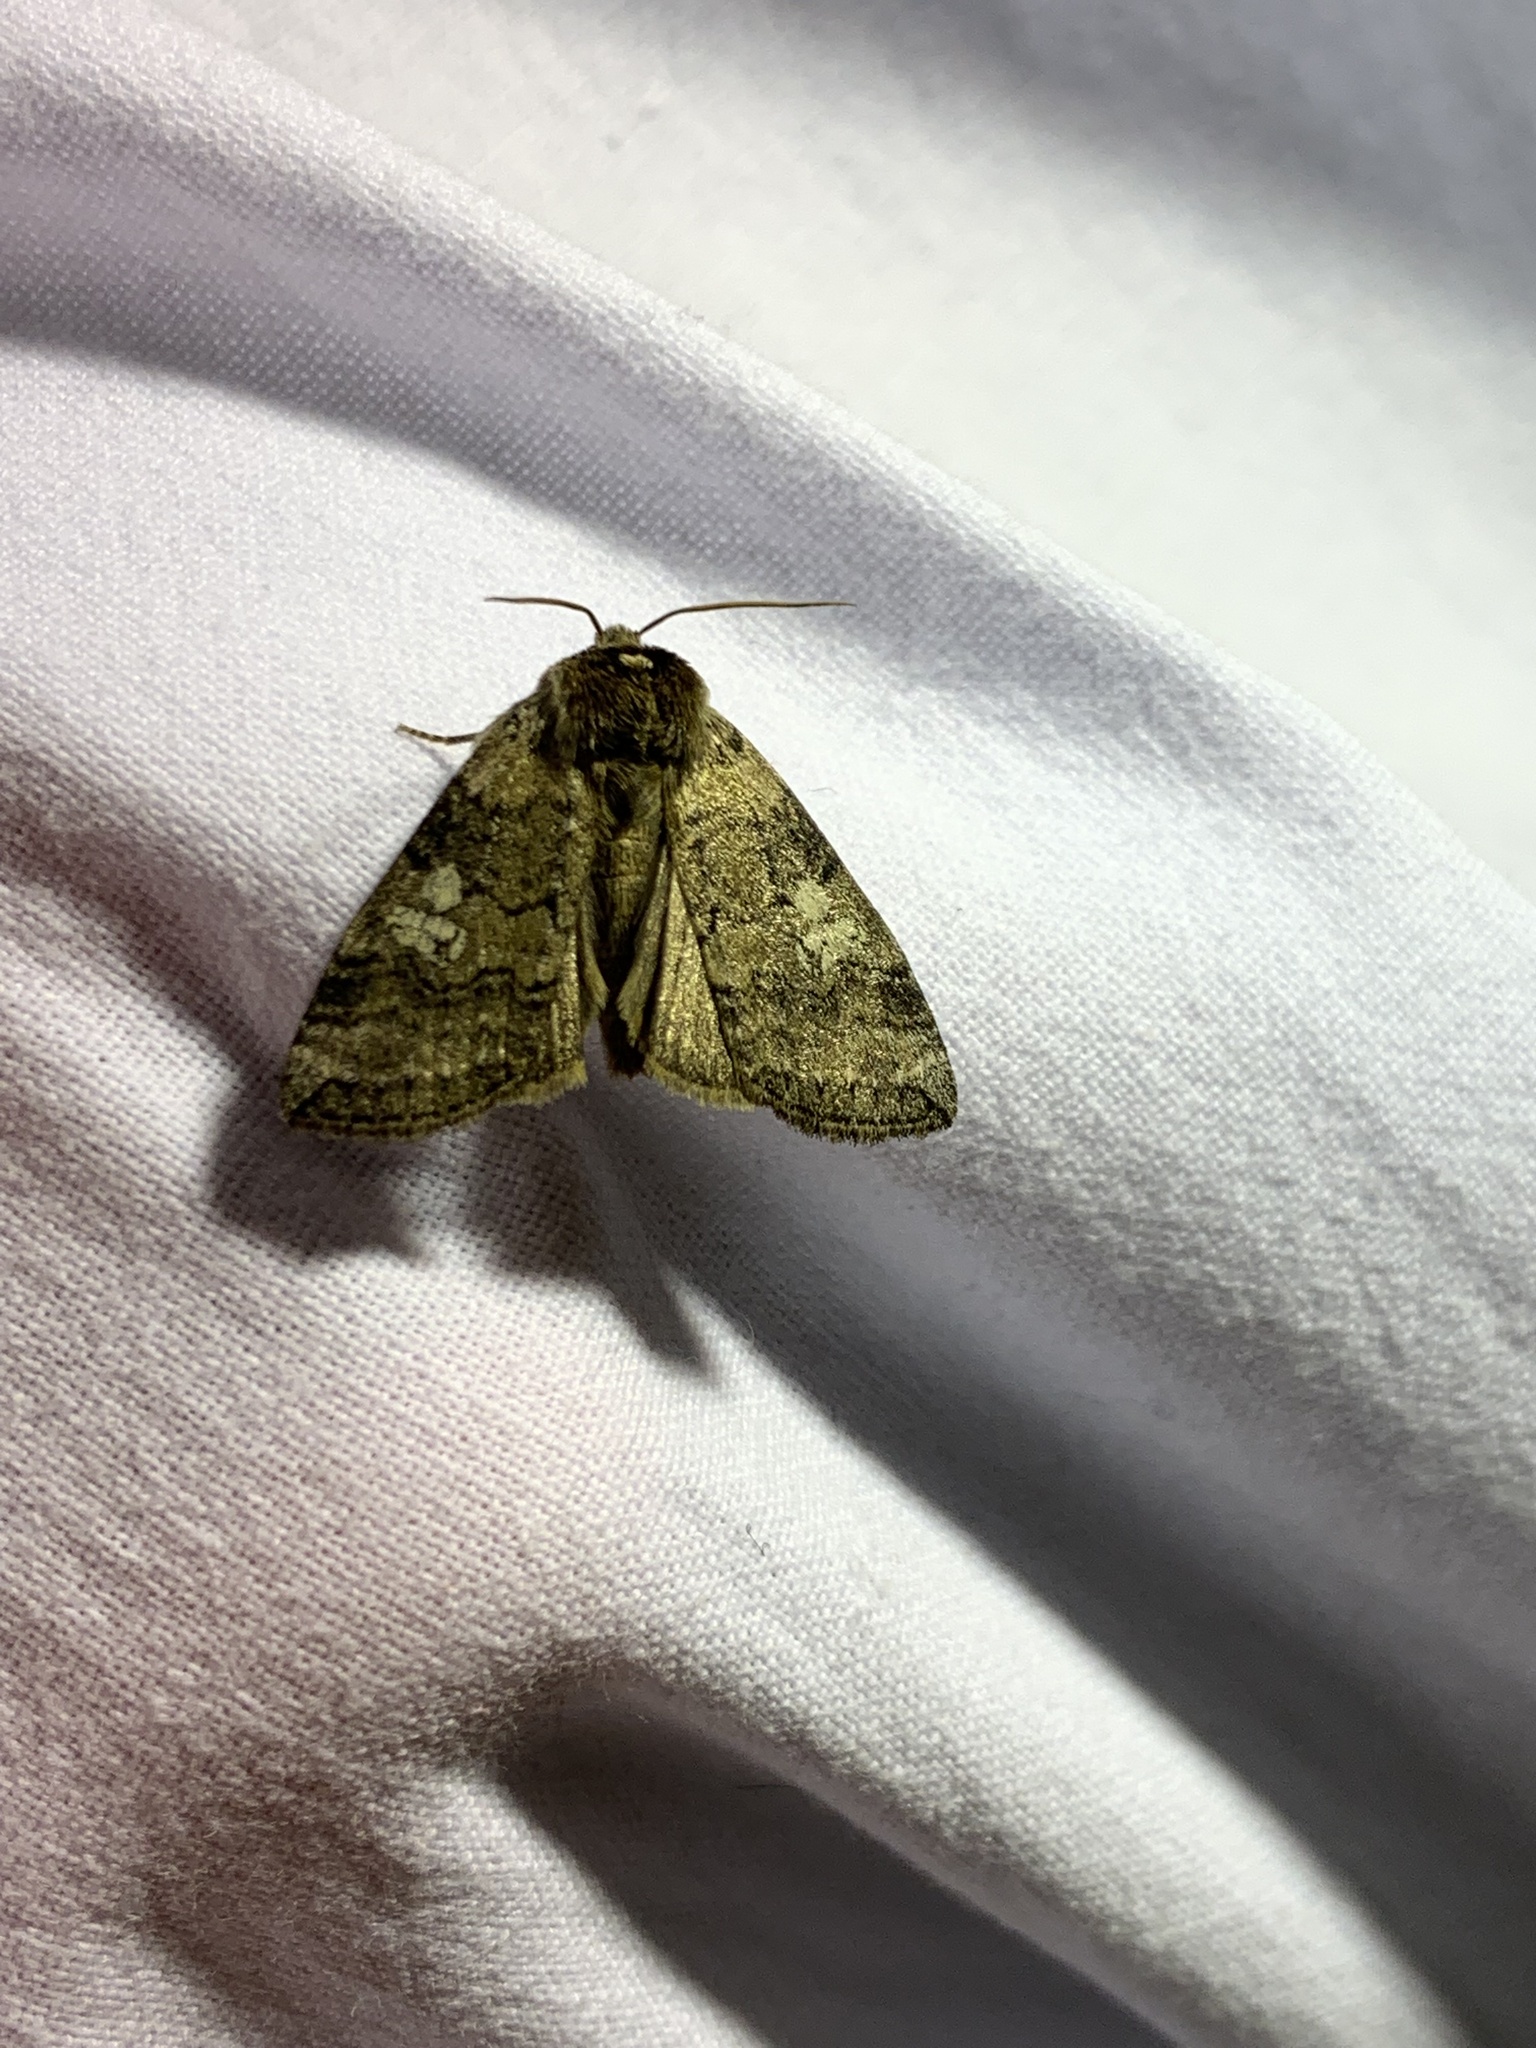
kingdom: Animalia
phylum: Arthropoda
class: Insecta
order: Lepidoptera
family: Drepanidae
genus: Tethea
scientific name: Tethea or
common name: Poplar lutestring
